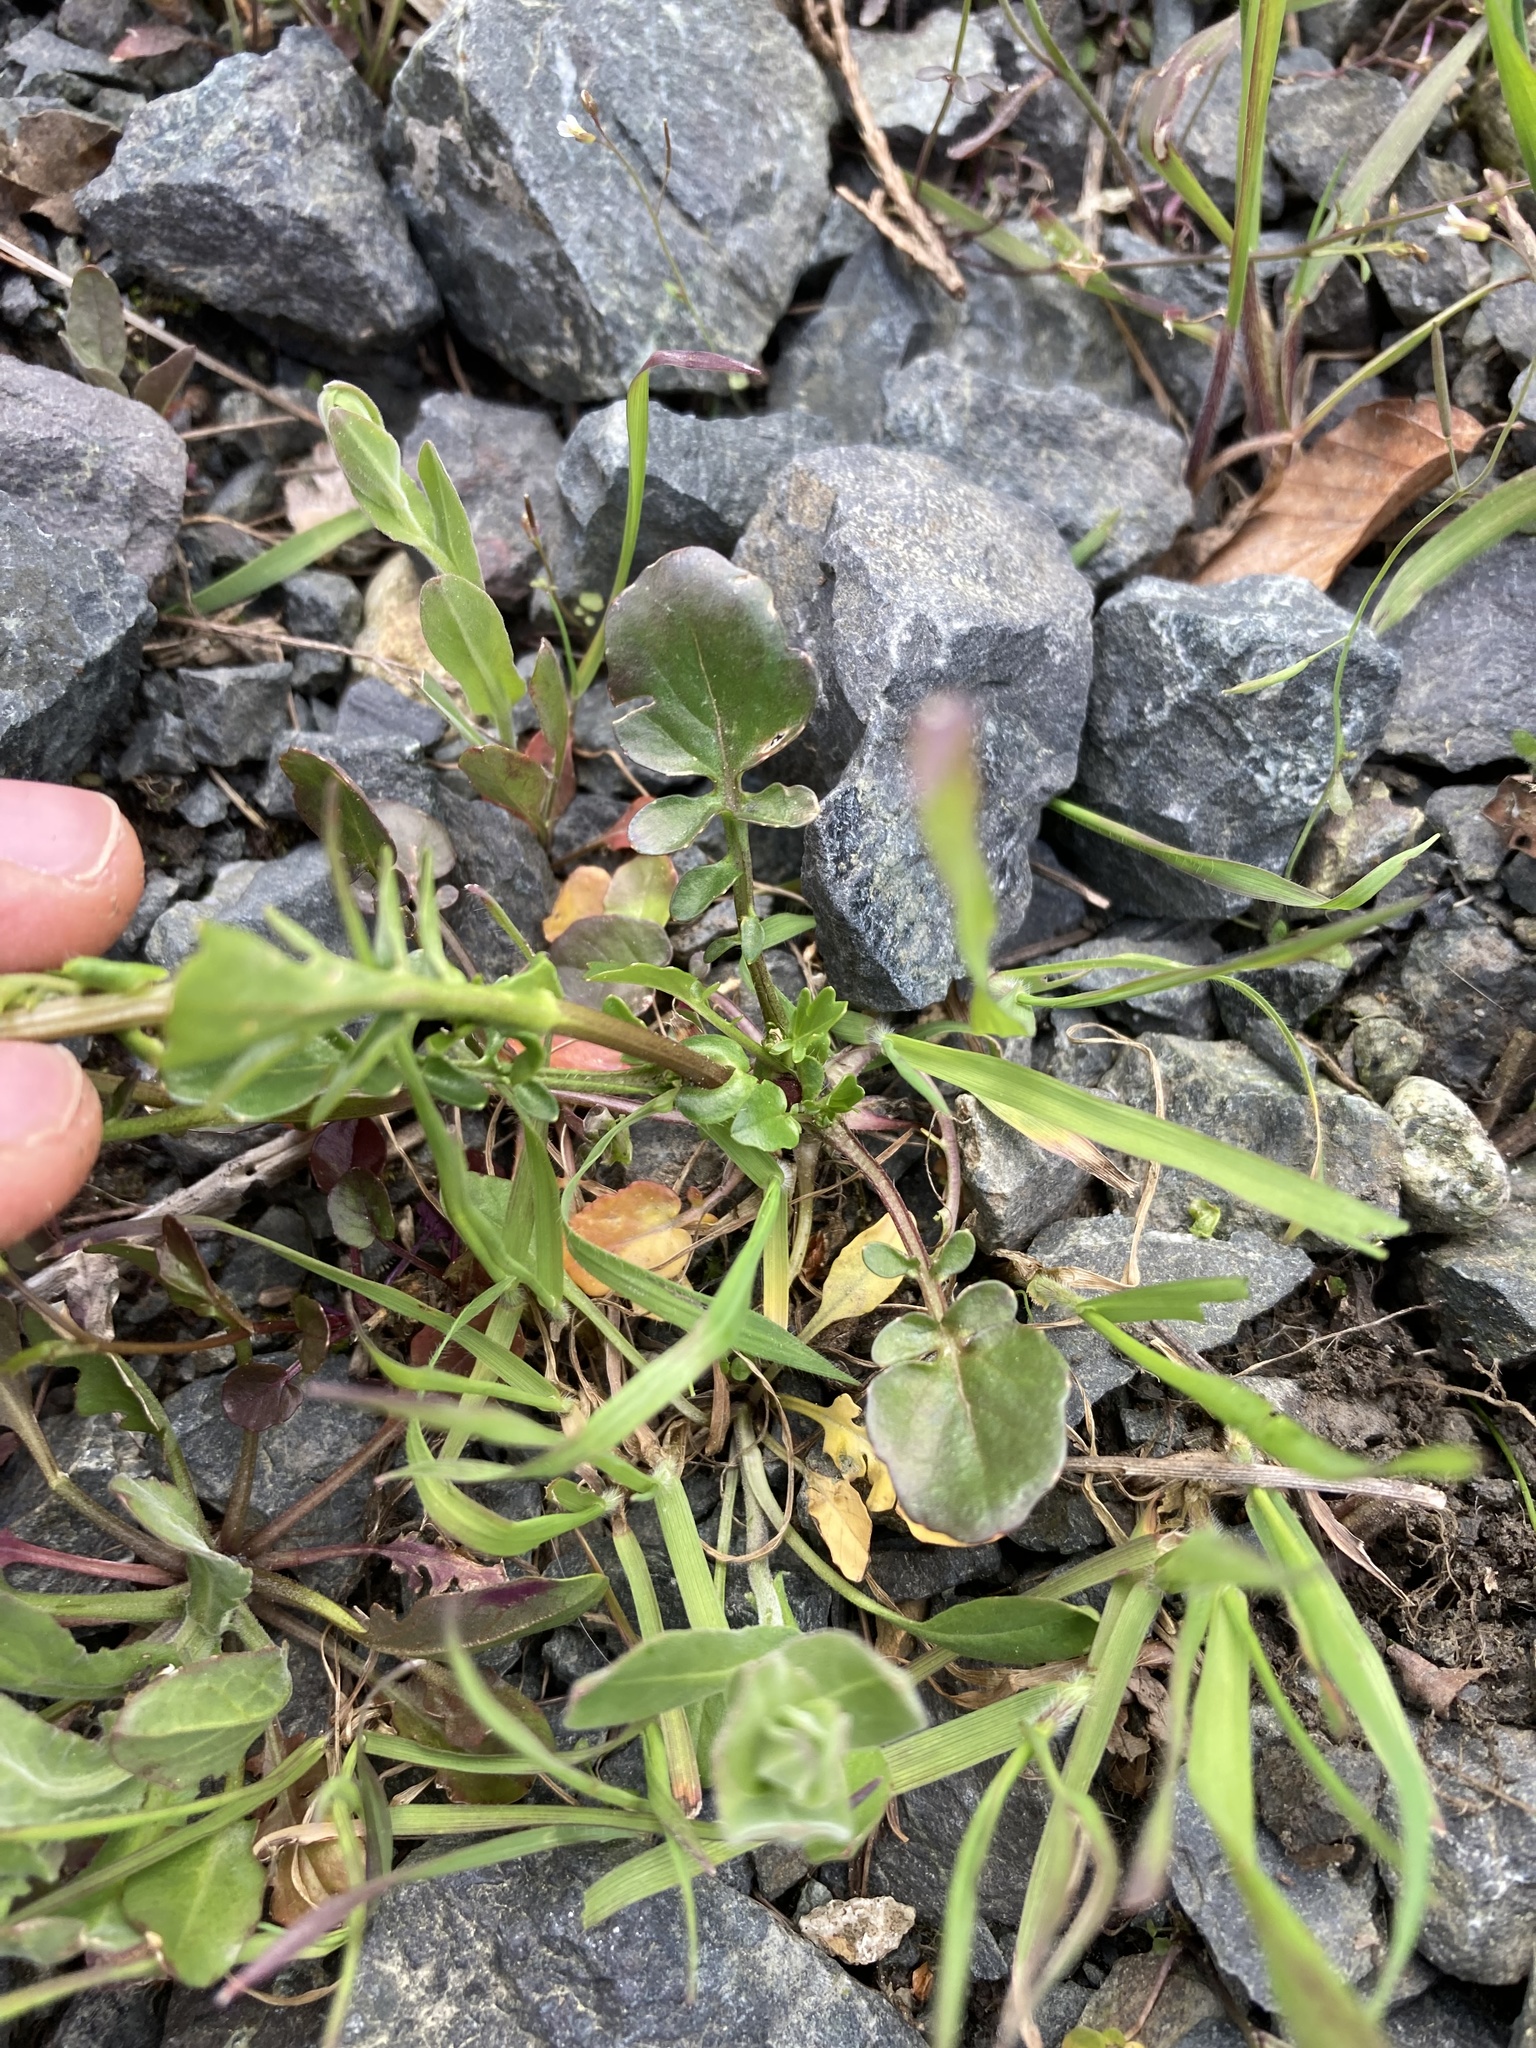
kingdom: Plantae
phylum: Tracheophyta
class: Magnoliopsida
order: Brassicales
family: Brassicaceae
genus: Barbarea
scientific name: Barbarea orthoceras
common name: American wintercress
